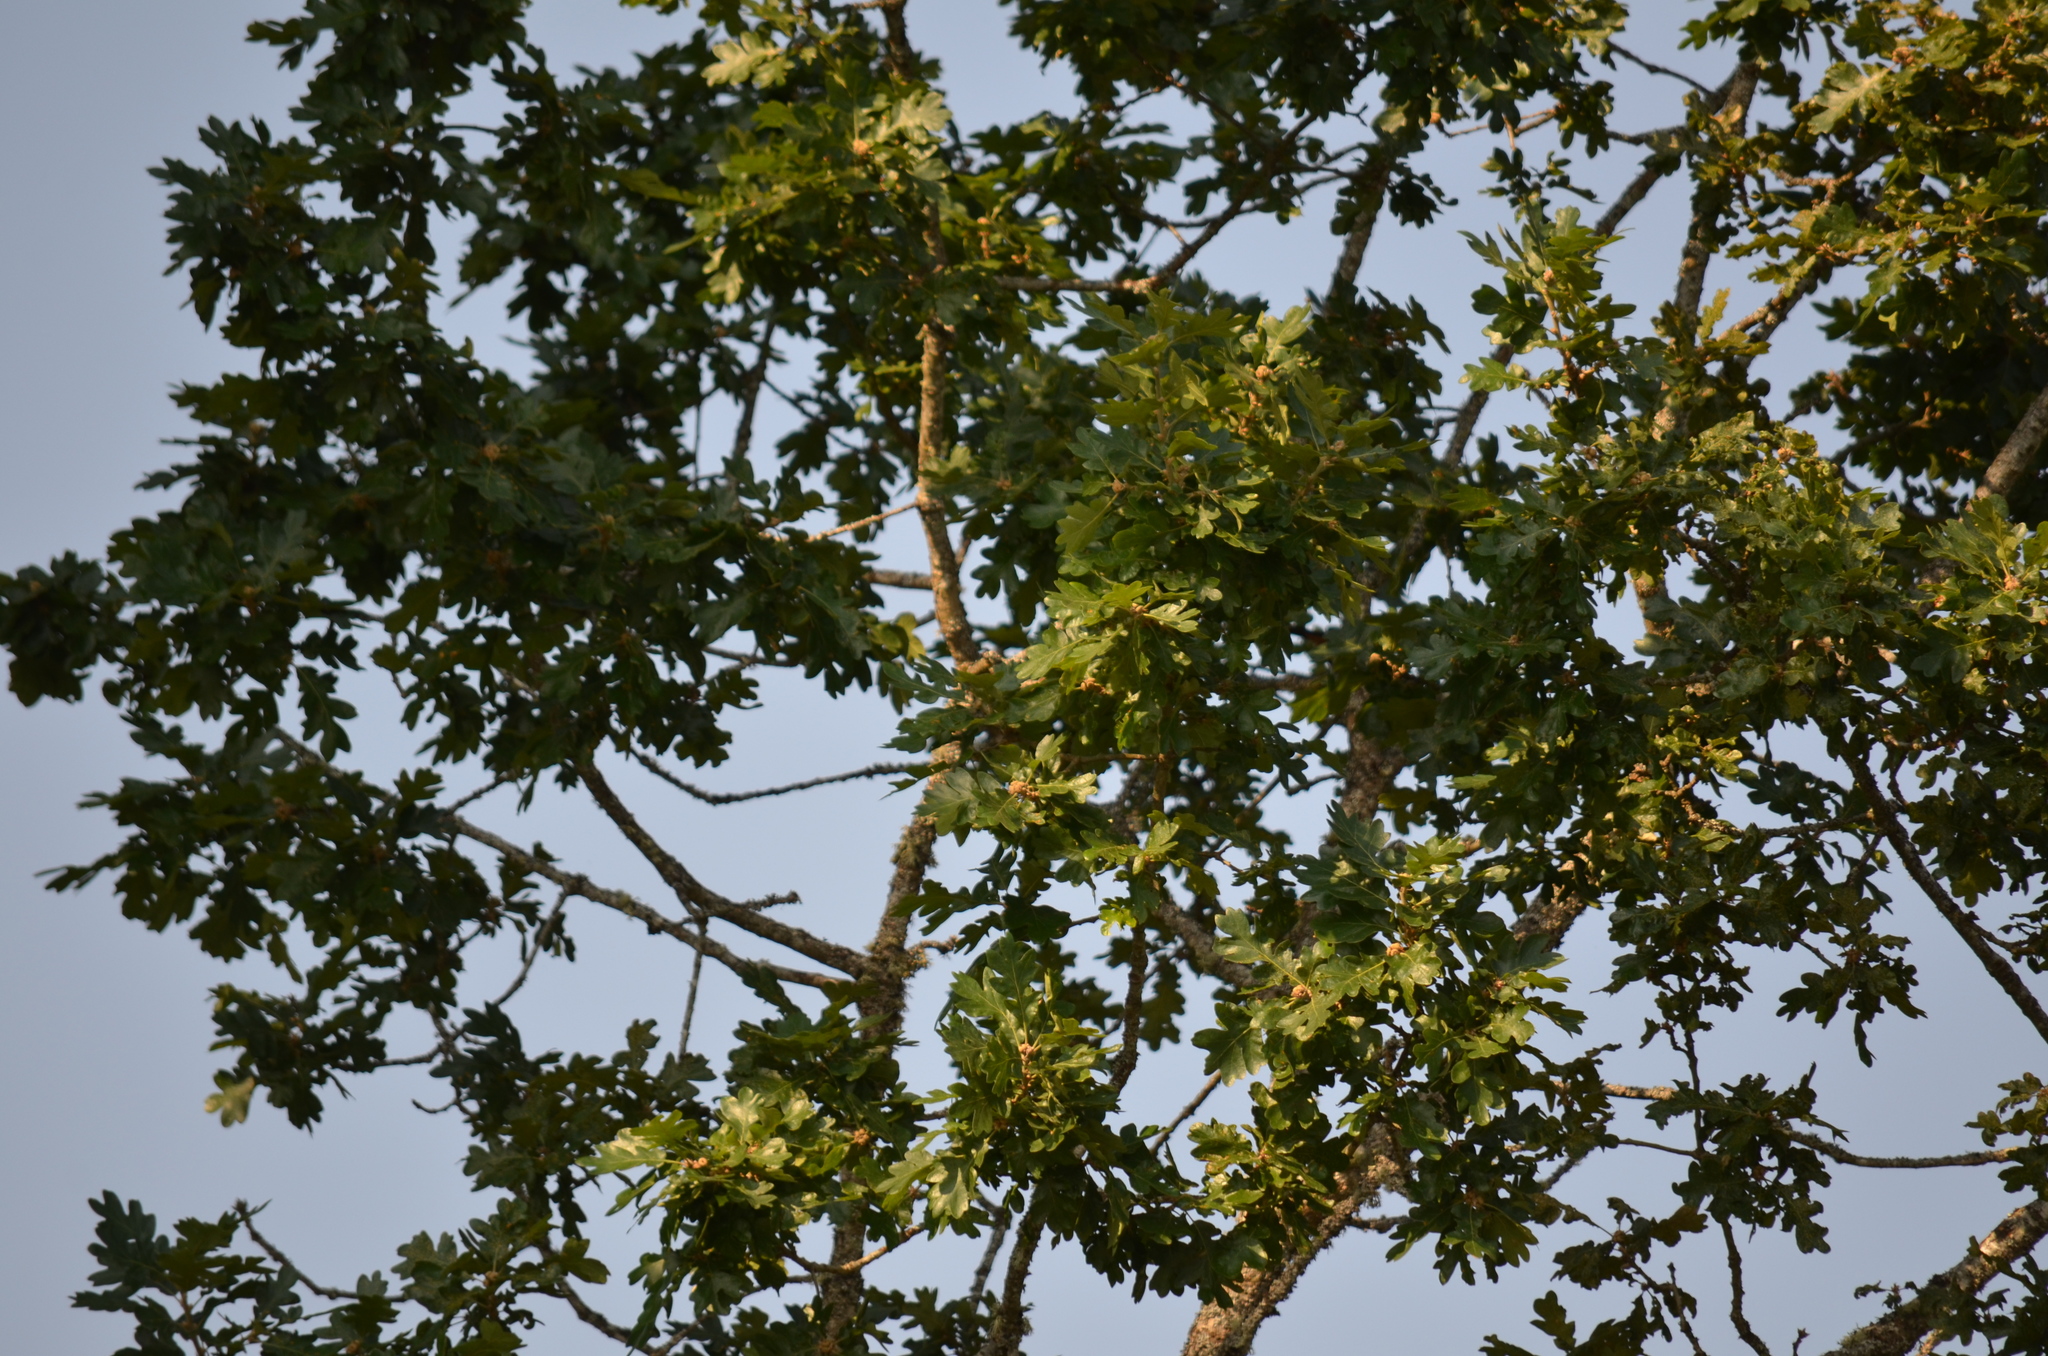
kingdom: Plantae
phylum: Tracheophyta
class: Magnoliopsida
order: Fagales
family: Fagaceae
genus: Quercus
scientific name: Quercus garryana
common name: Garry oak
